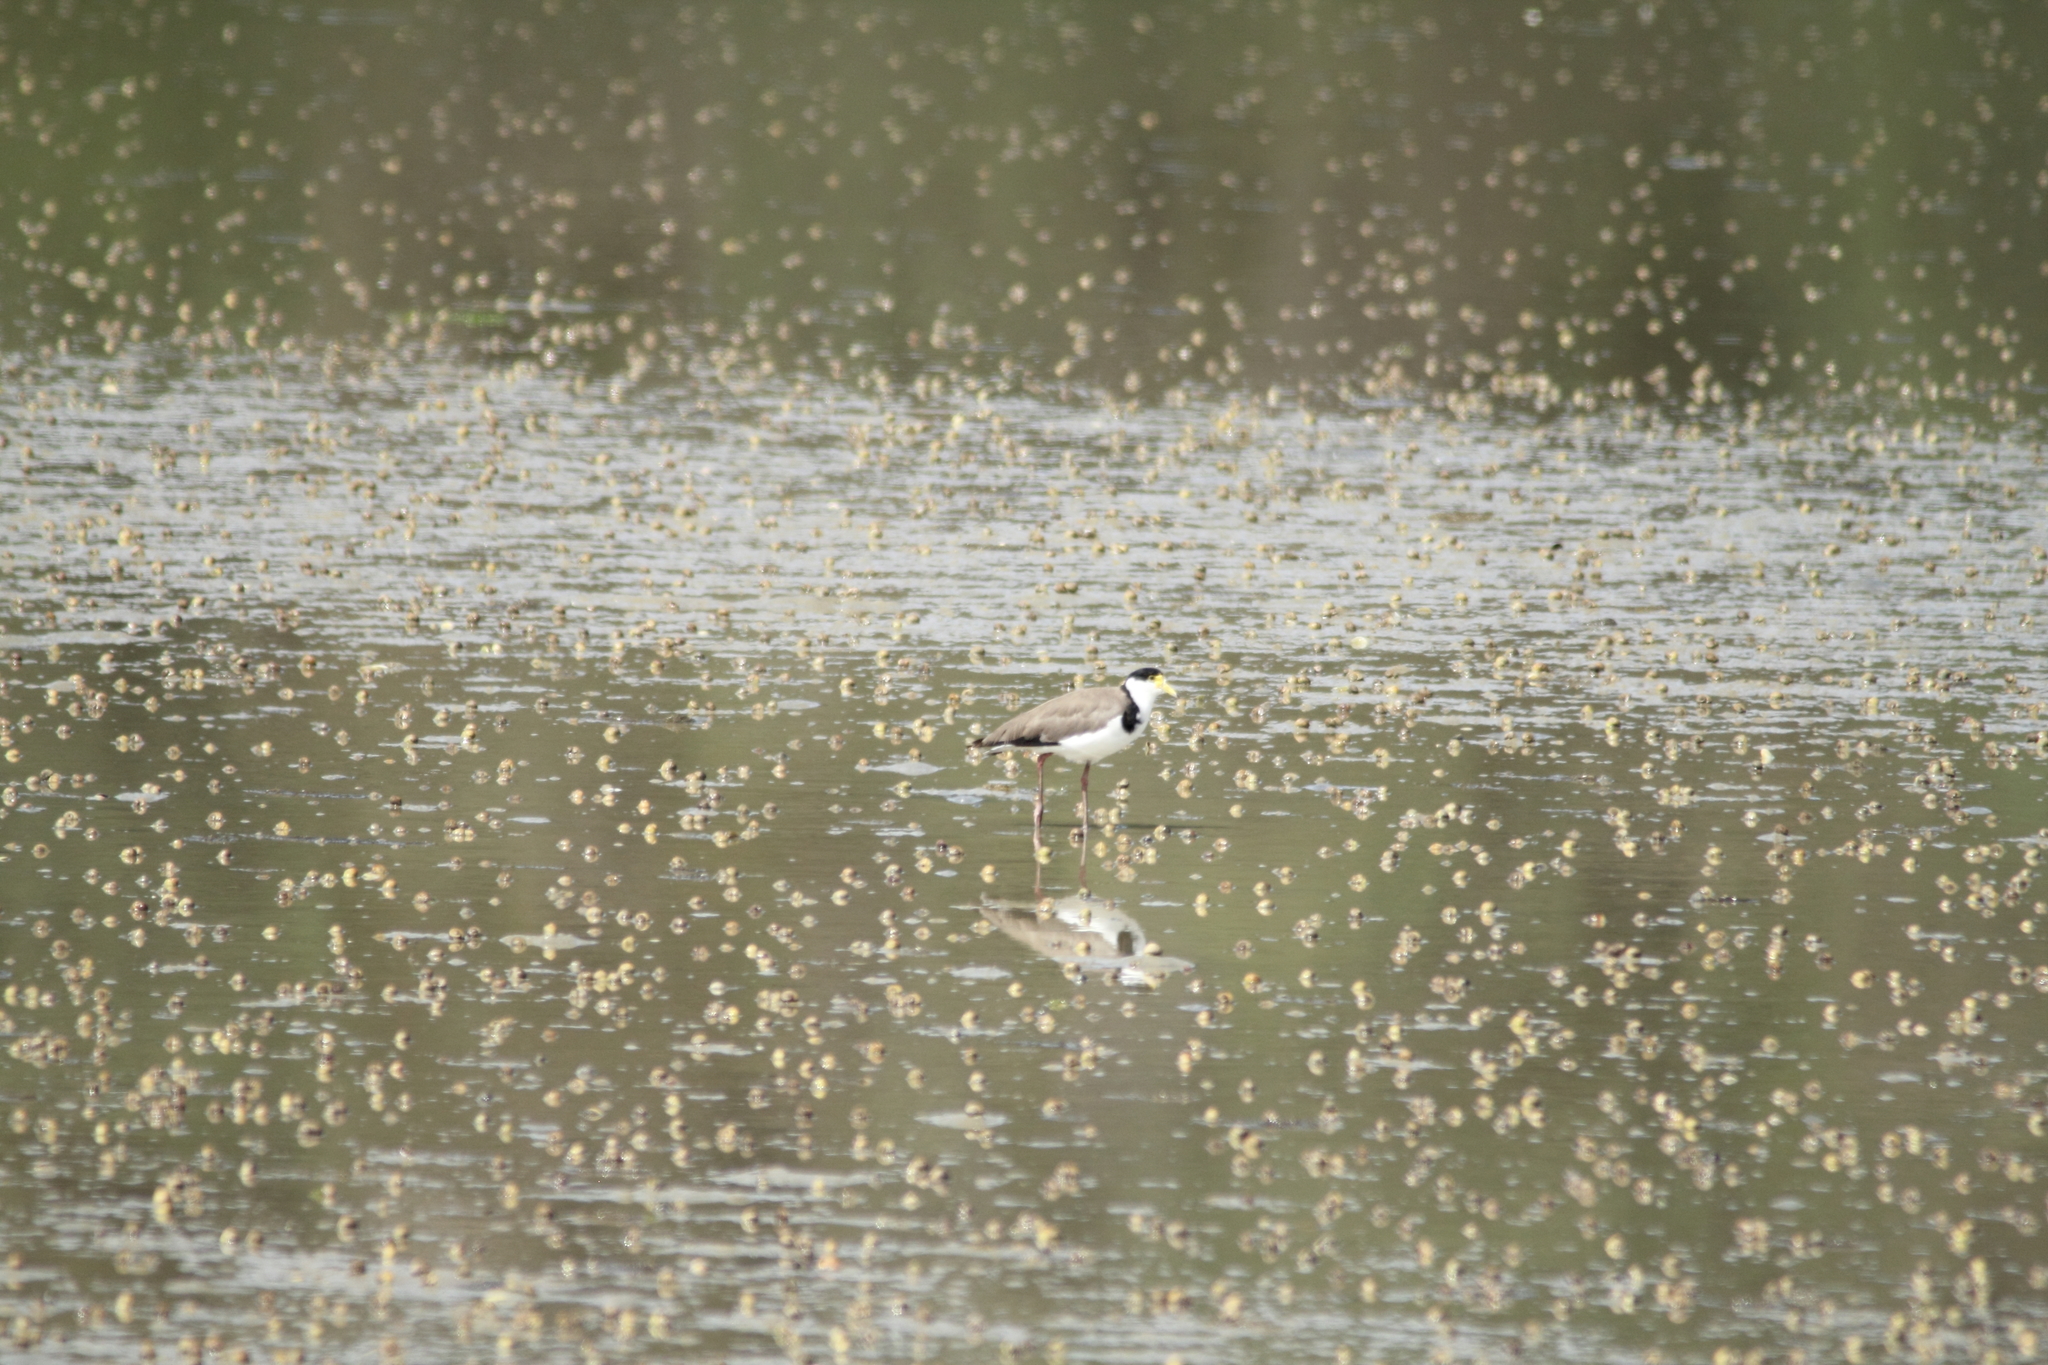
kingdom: Animalia
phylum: Chordata
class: Aves
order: Charadriiformes
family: Charadriidae
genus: Vanellus
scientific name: Vanellus miles
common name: Masked lapwing
